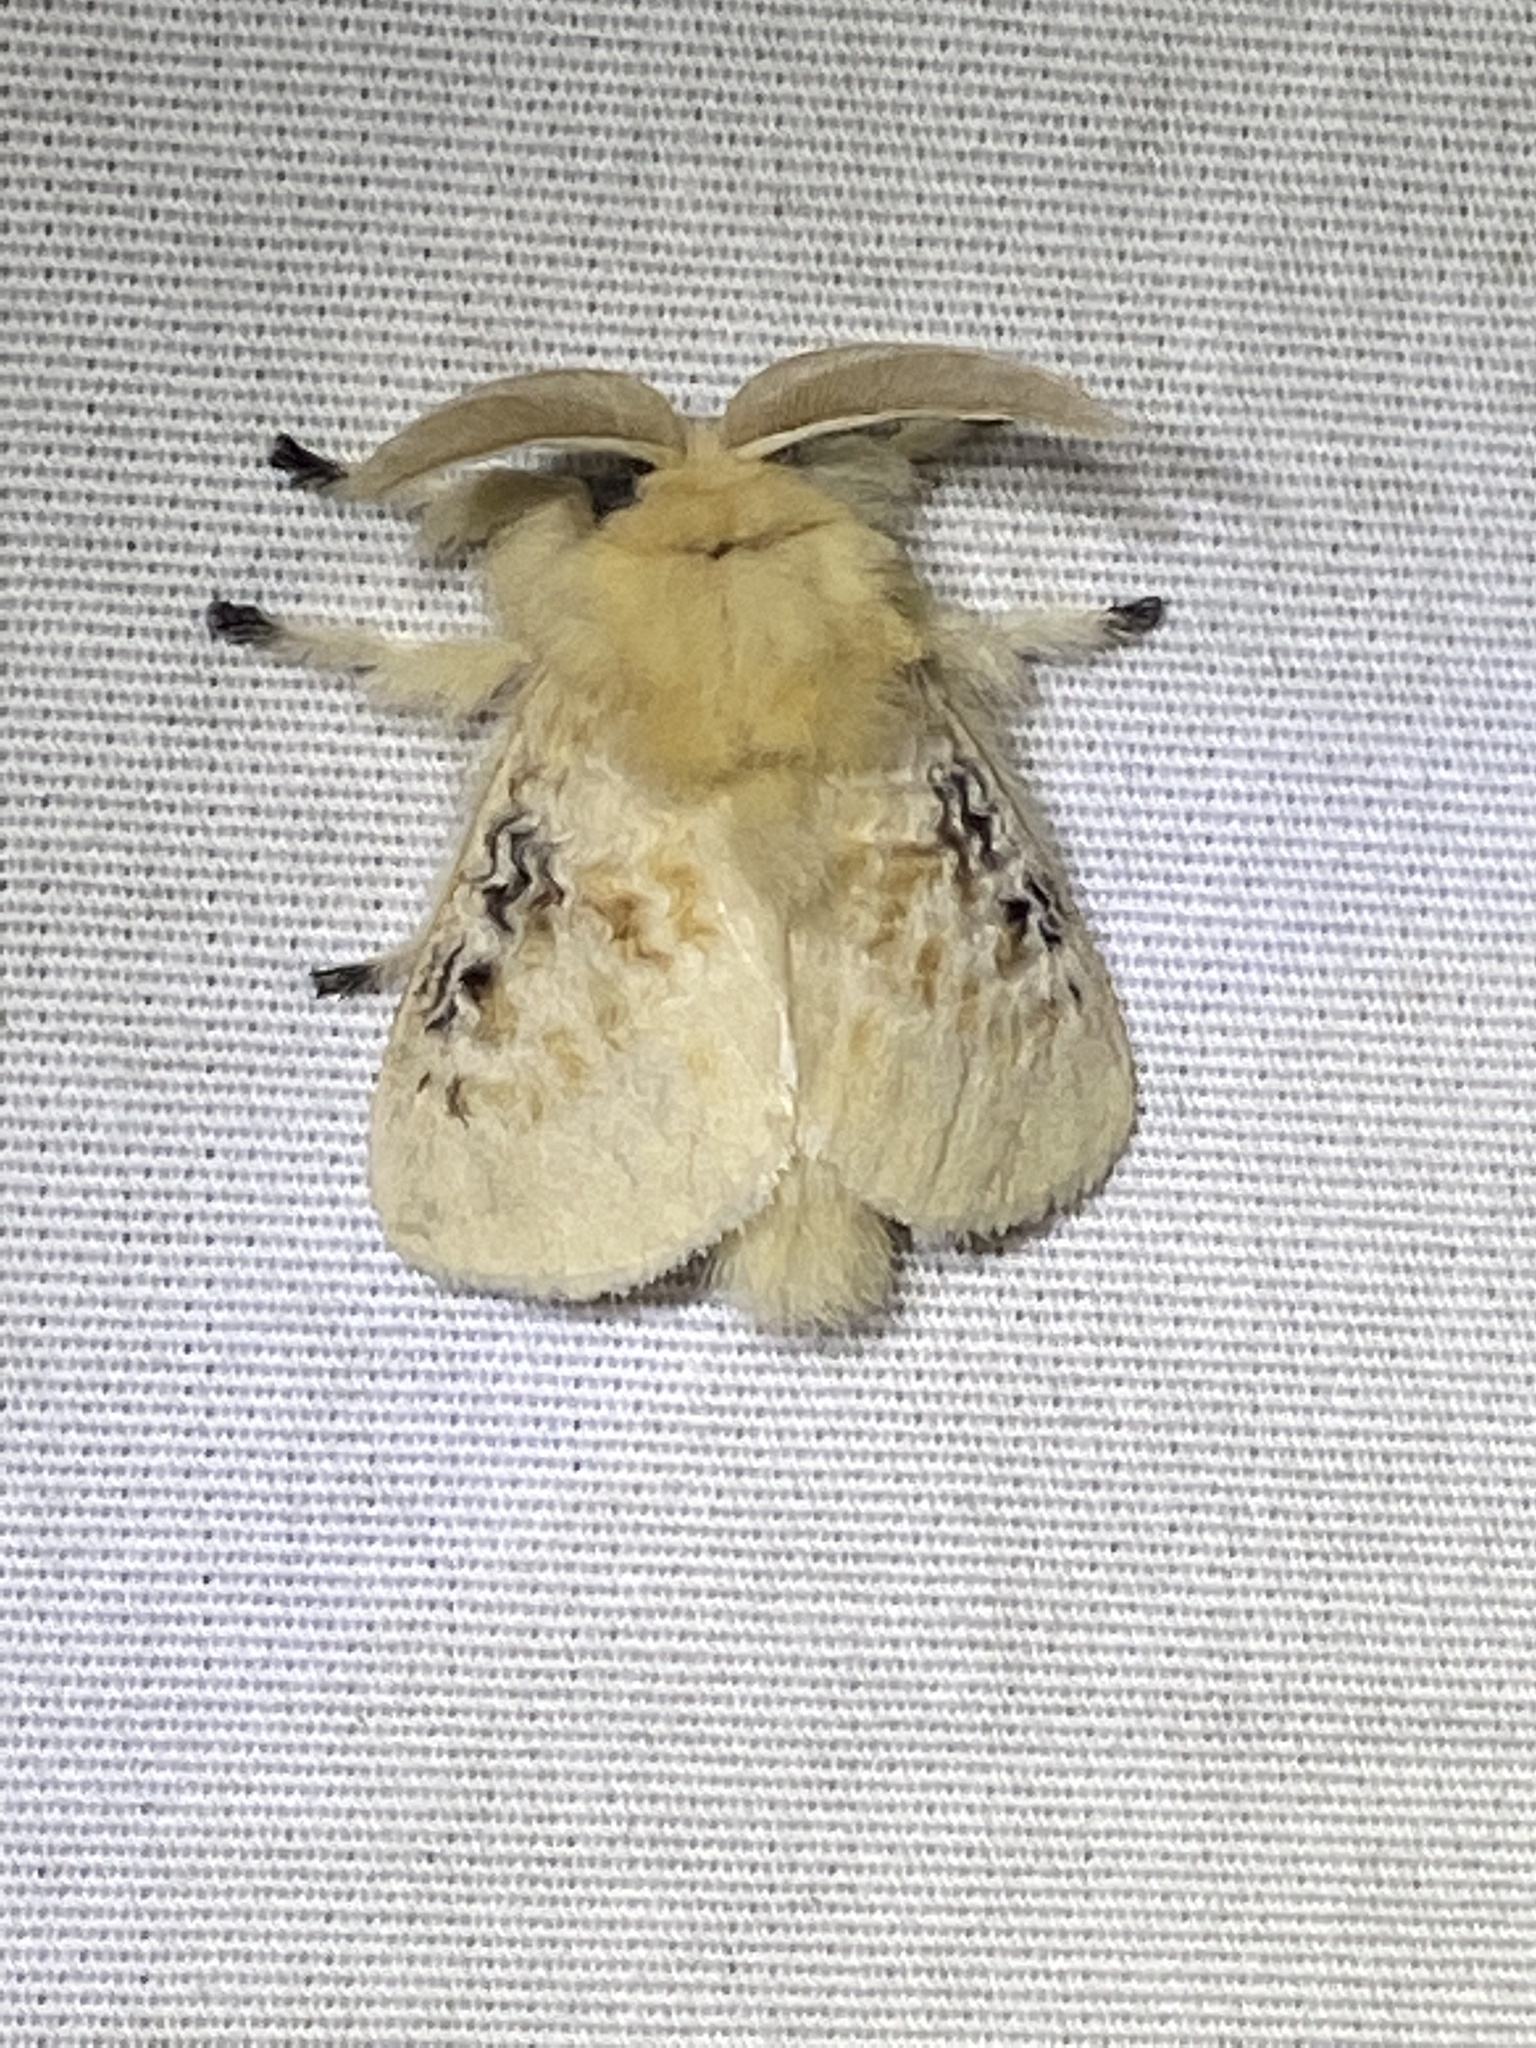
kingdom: Animalia
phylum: Arthropoda
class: Insecta
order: Lepidoptera
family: Megalopygidae
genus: Megalopyge
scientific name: Megalopyge crispata
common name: Black-waved flannel moth
